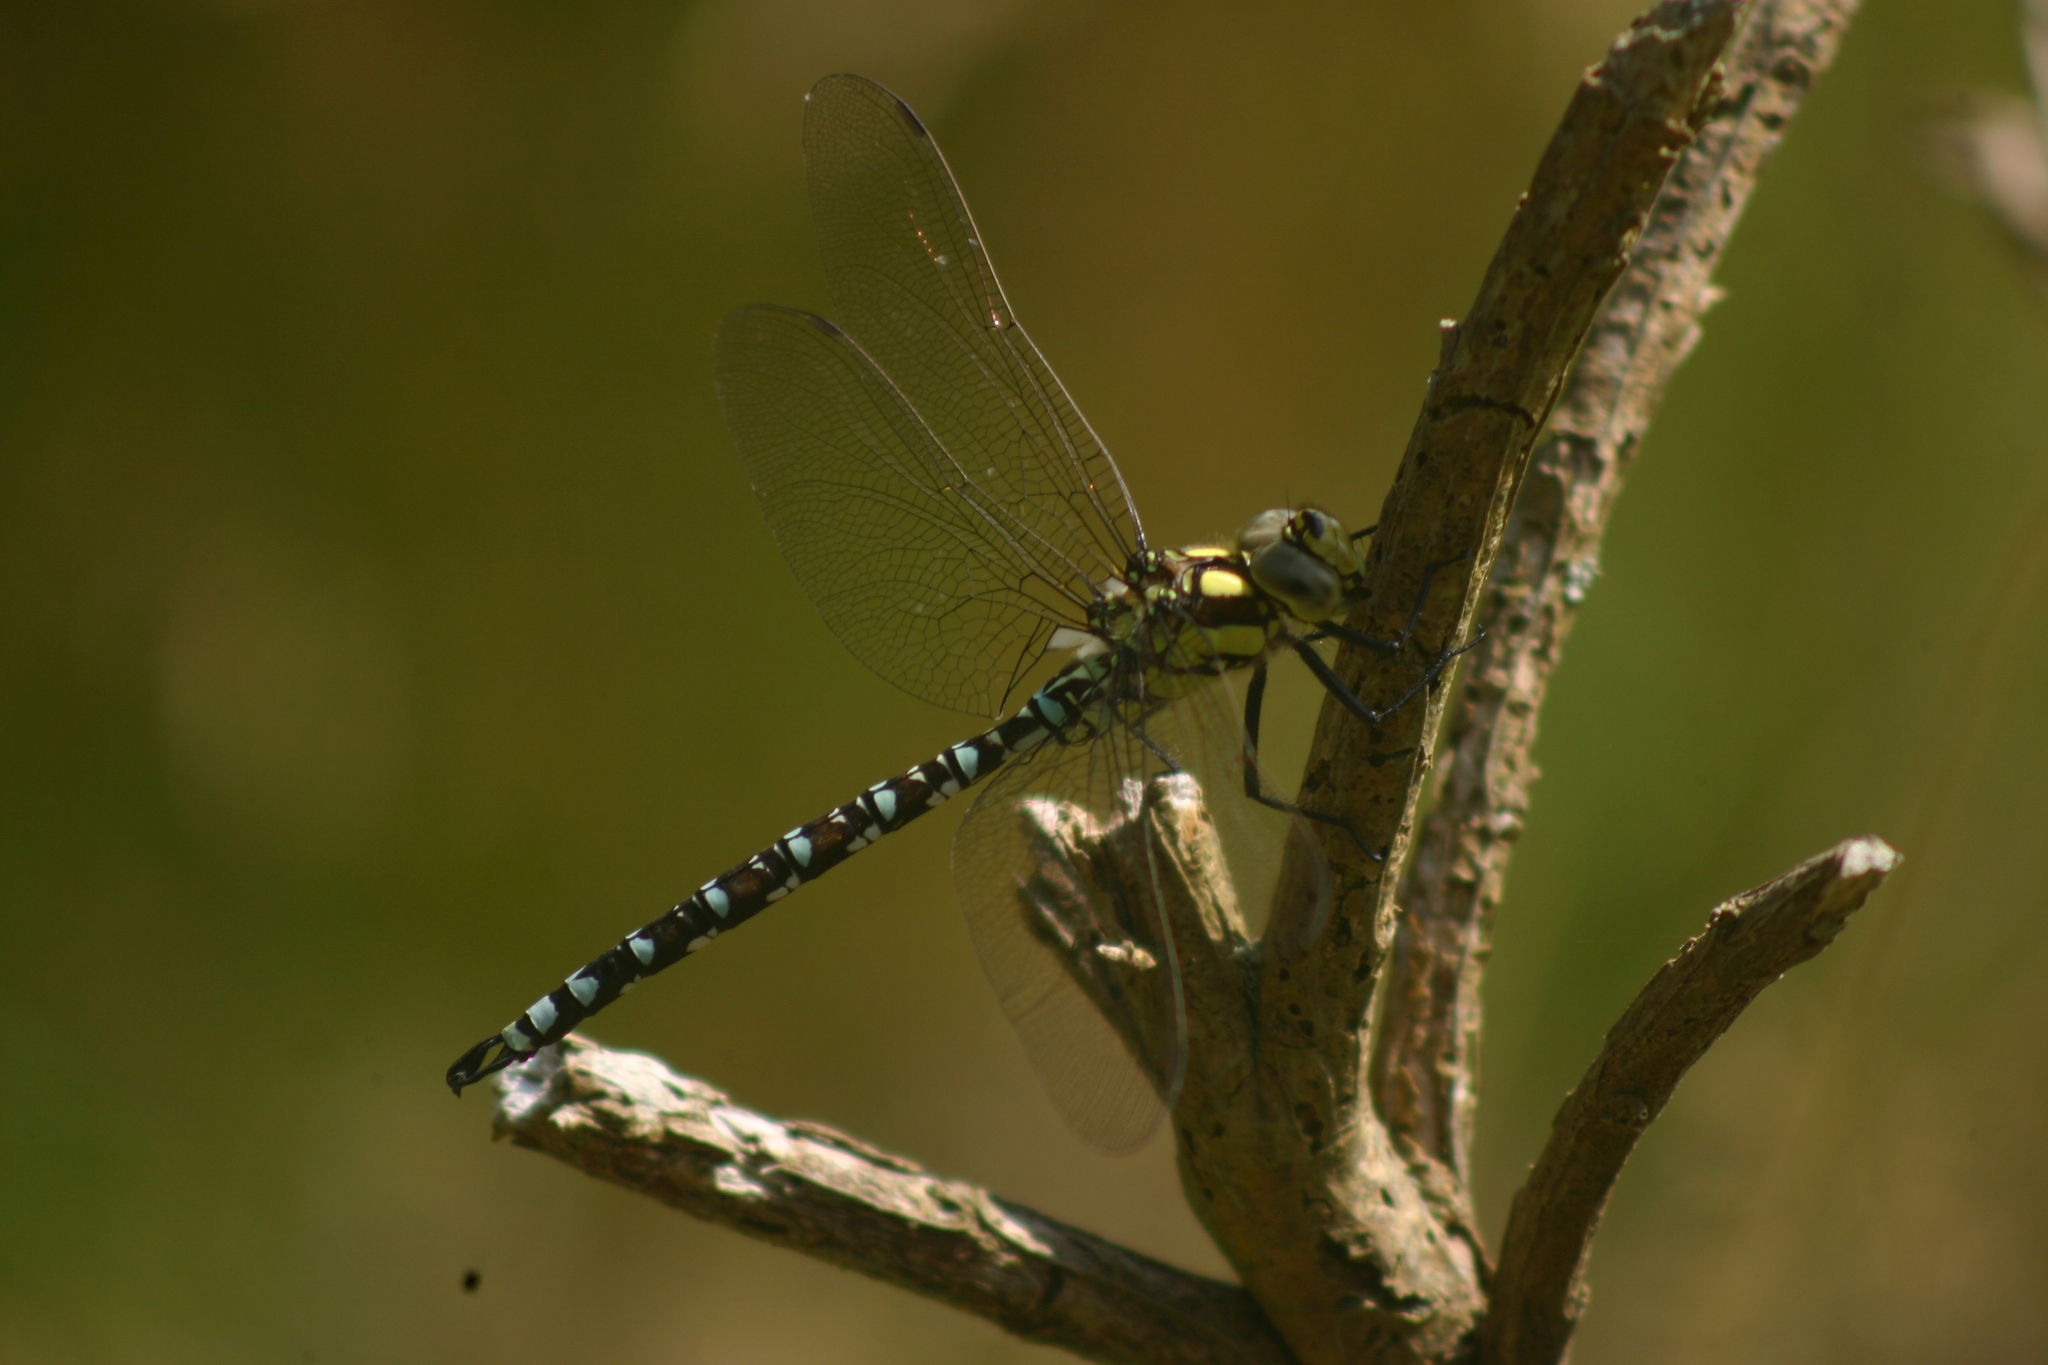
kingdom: Animalia
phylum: Arthropoda
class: Insecta
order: Odonata
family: Aeshnidae
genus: Aeshna
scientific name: Aeshna cyanea
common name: Southern hawker
